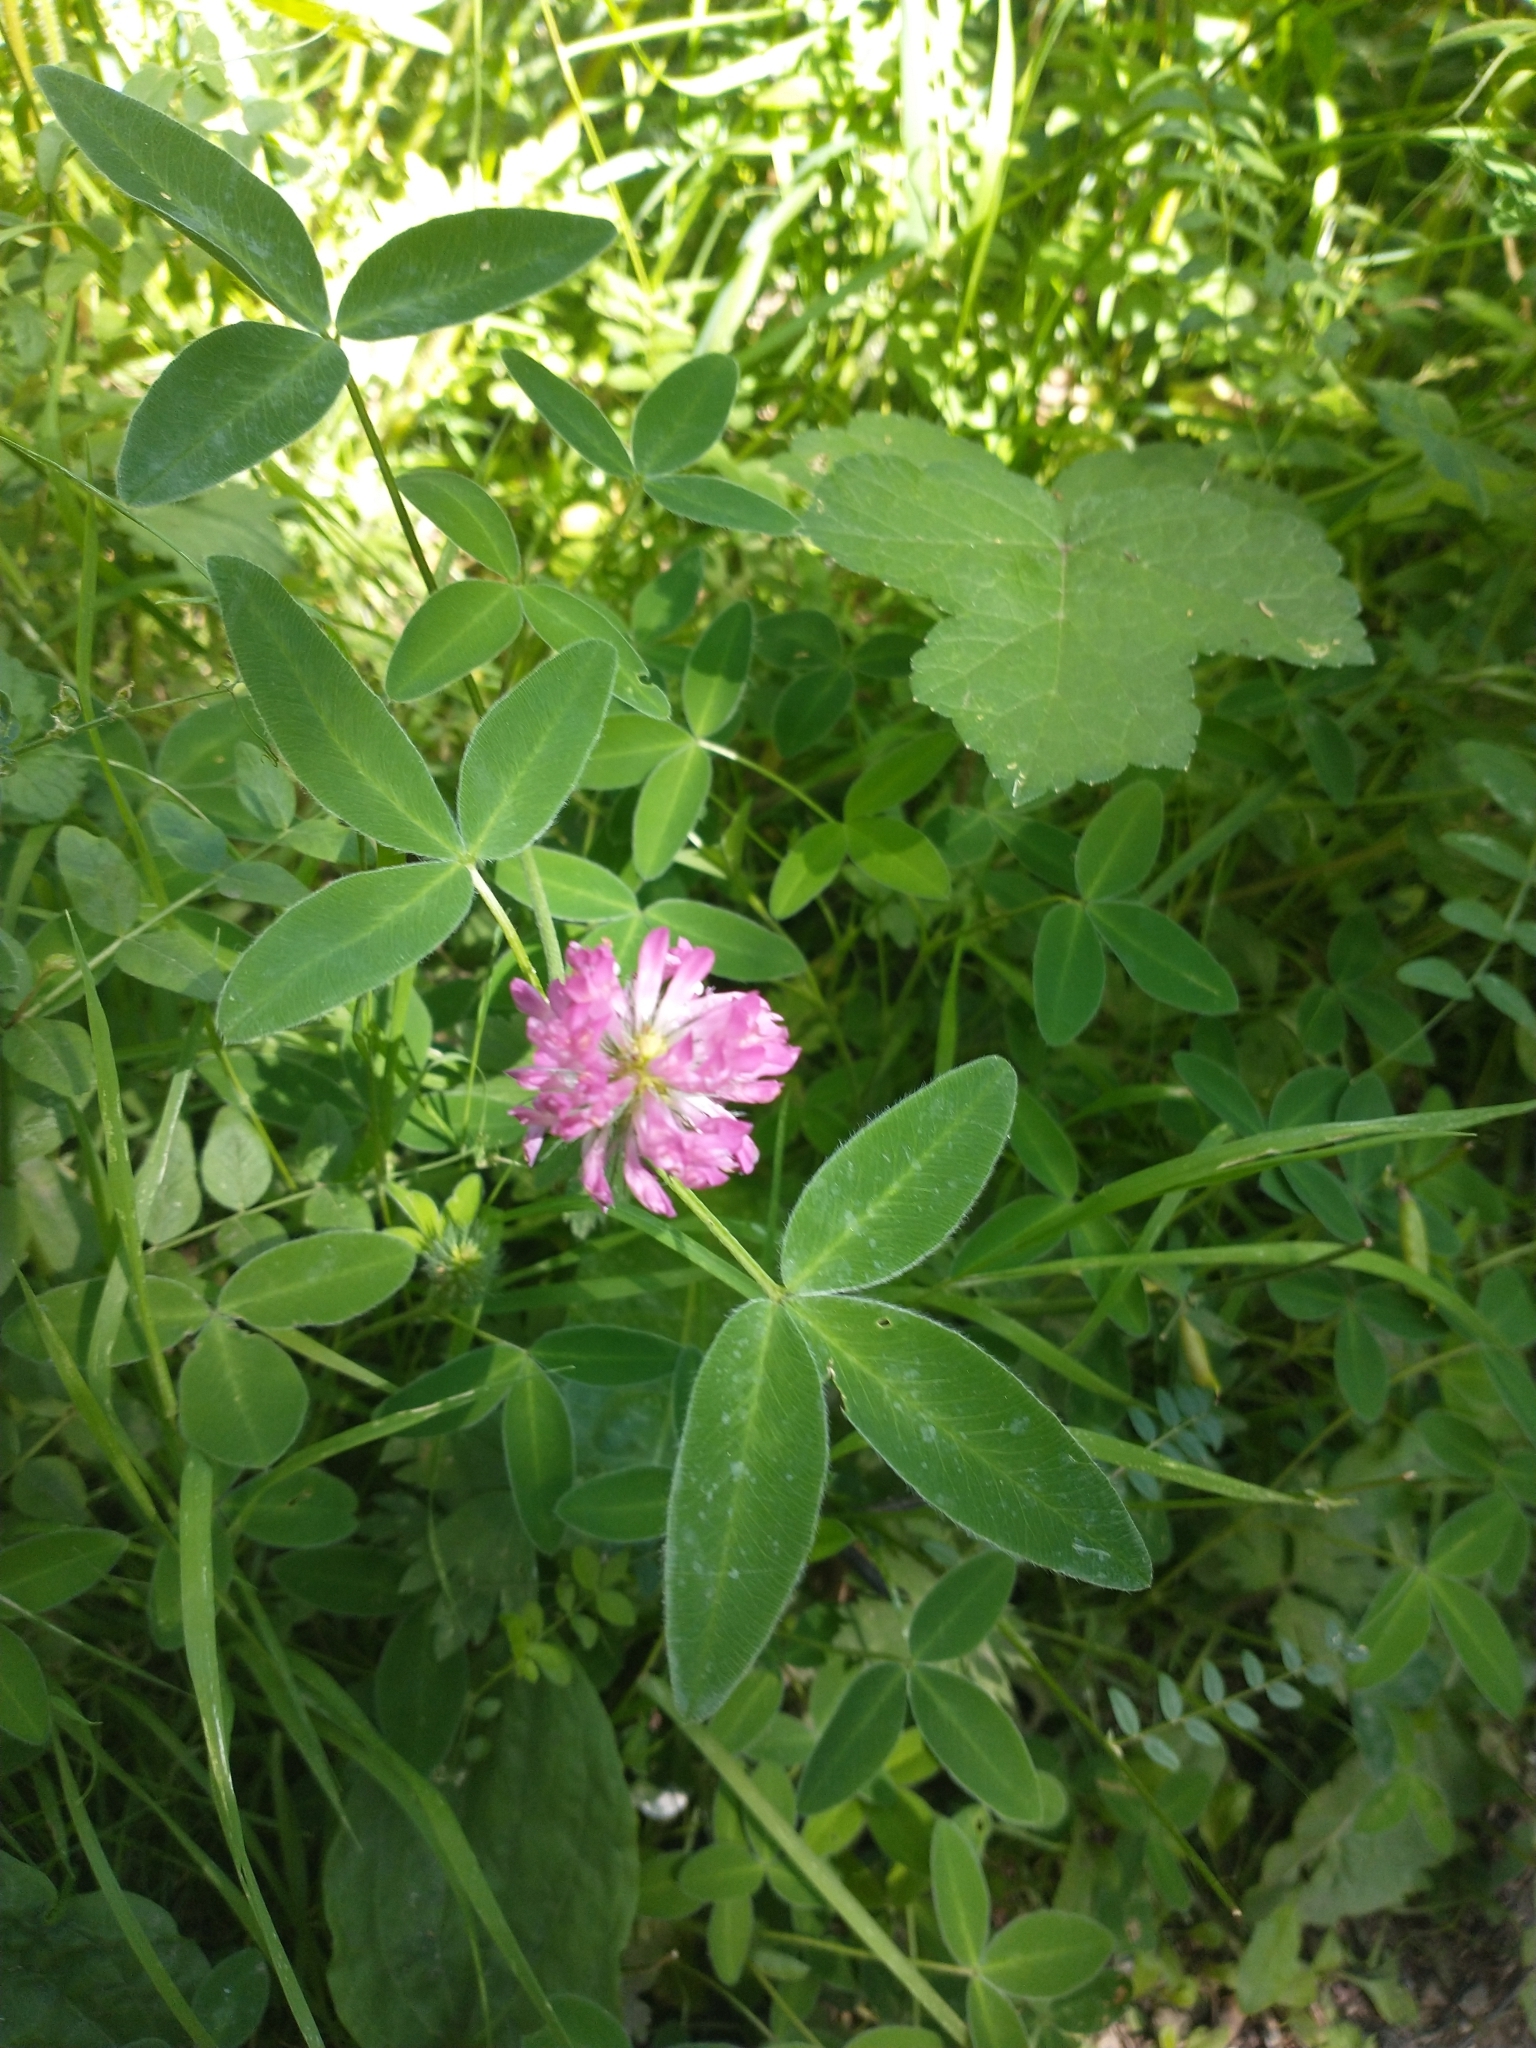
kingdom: Plantae
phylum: Tracheophyta
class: Magnoliopsida
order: Fabales
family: Fabaceae
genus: Trifolium
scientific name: Trifolium medium
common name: Zigzag clover
